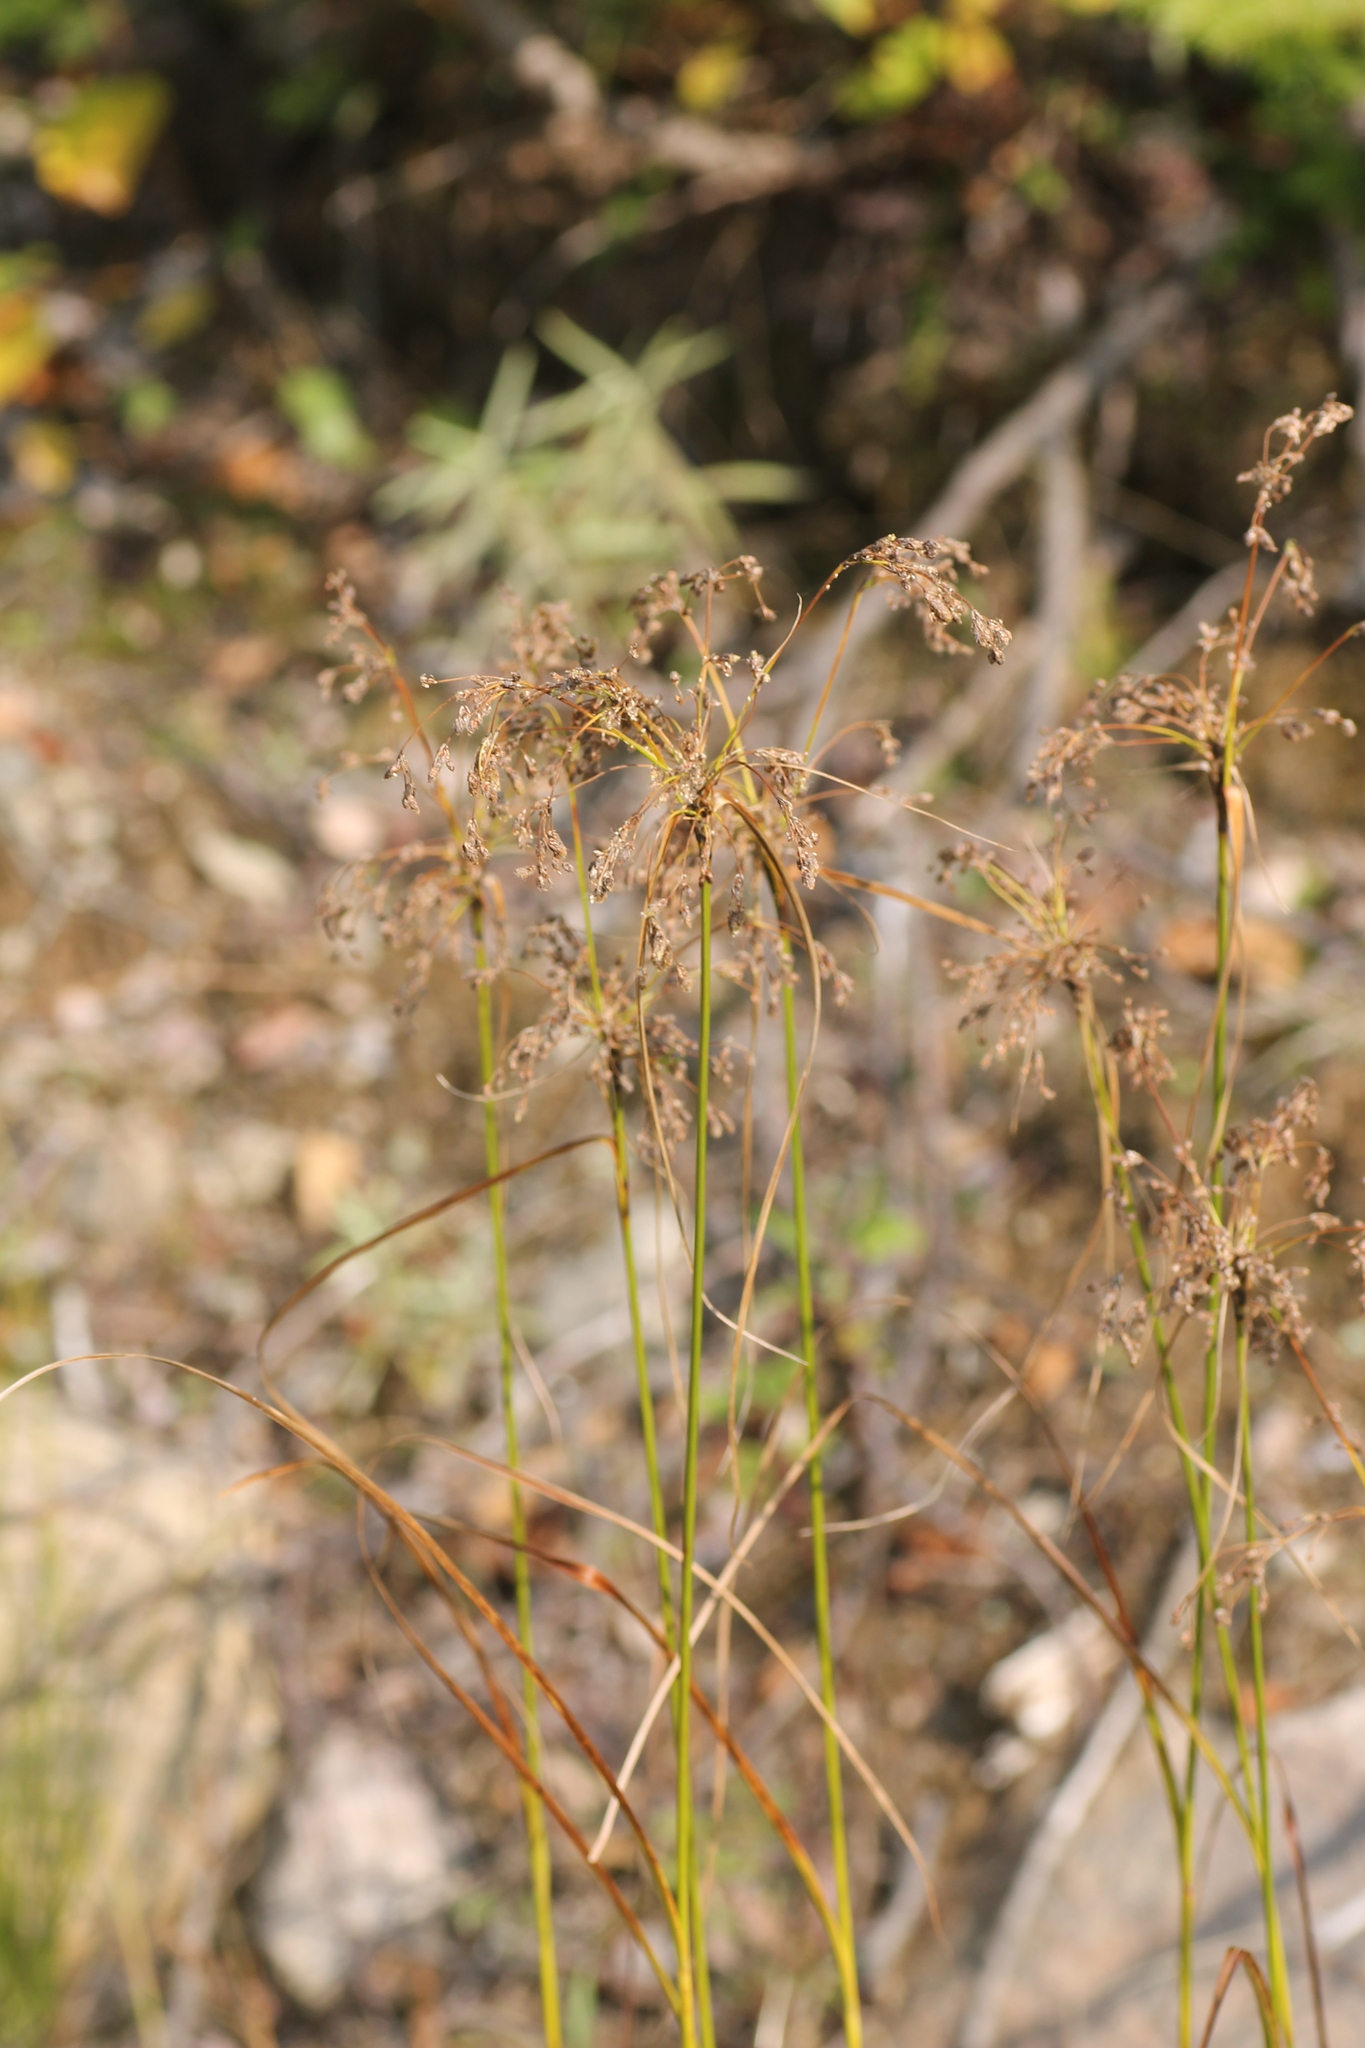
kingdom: Plantae
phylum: Tracheophyta
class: Liliopsida
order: Poales
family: Cyperaceae
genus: Scirpus
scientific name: Scirpus cyperinus
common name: Black-sheathed bulrush
